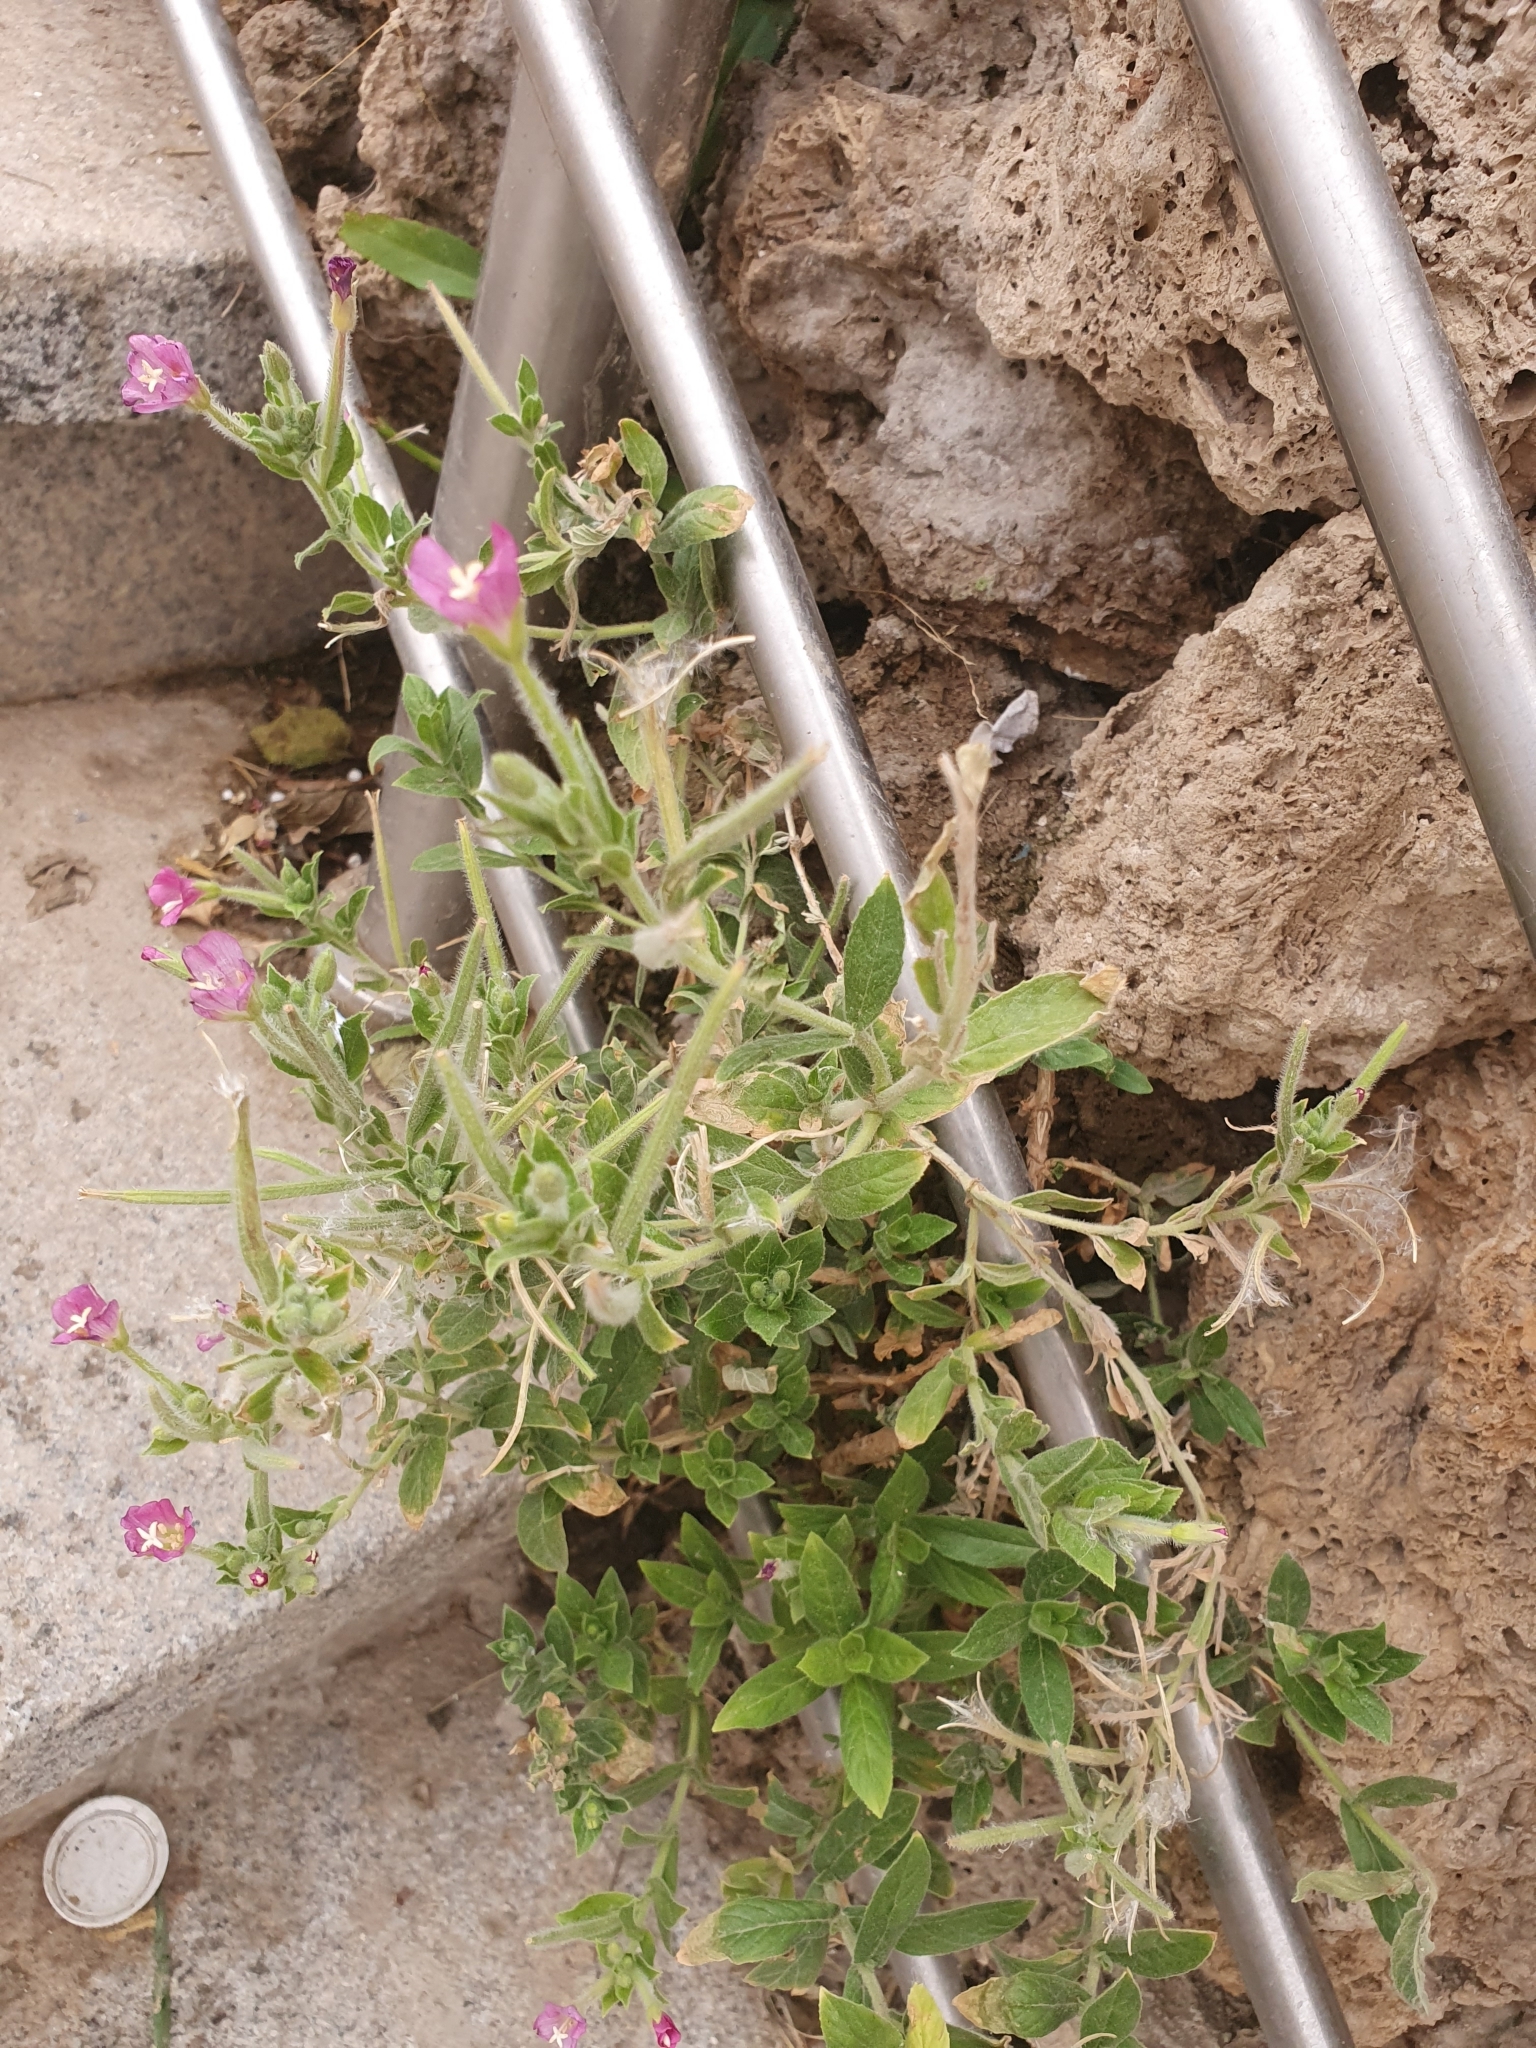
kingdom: Plantae
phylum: Tracheophyta
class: Magnoliopsida
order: Myrtales
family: Onagraceae
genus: Epilobium
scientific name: Epilobium hirsutum
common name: Great willowherb
